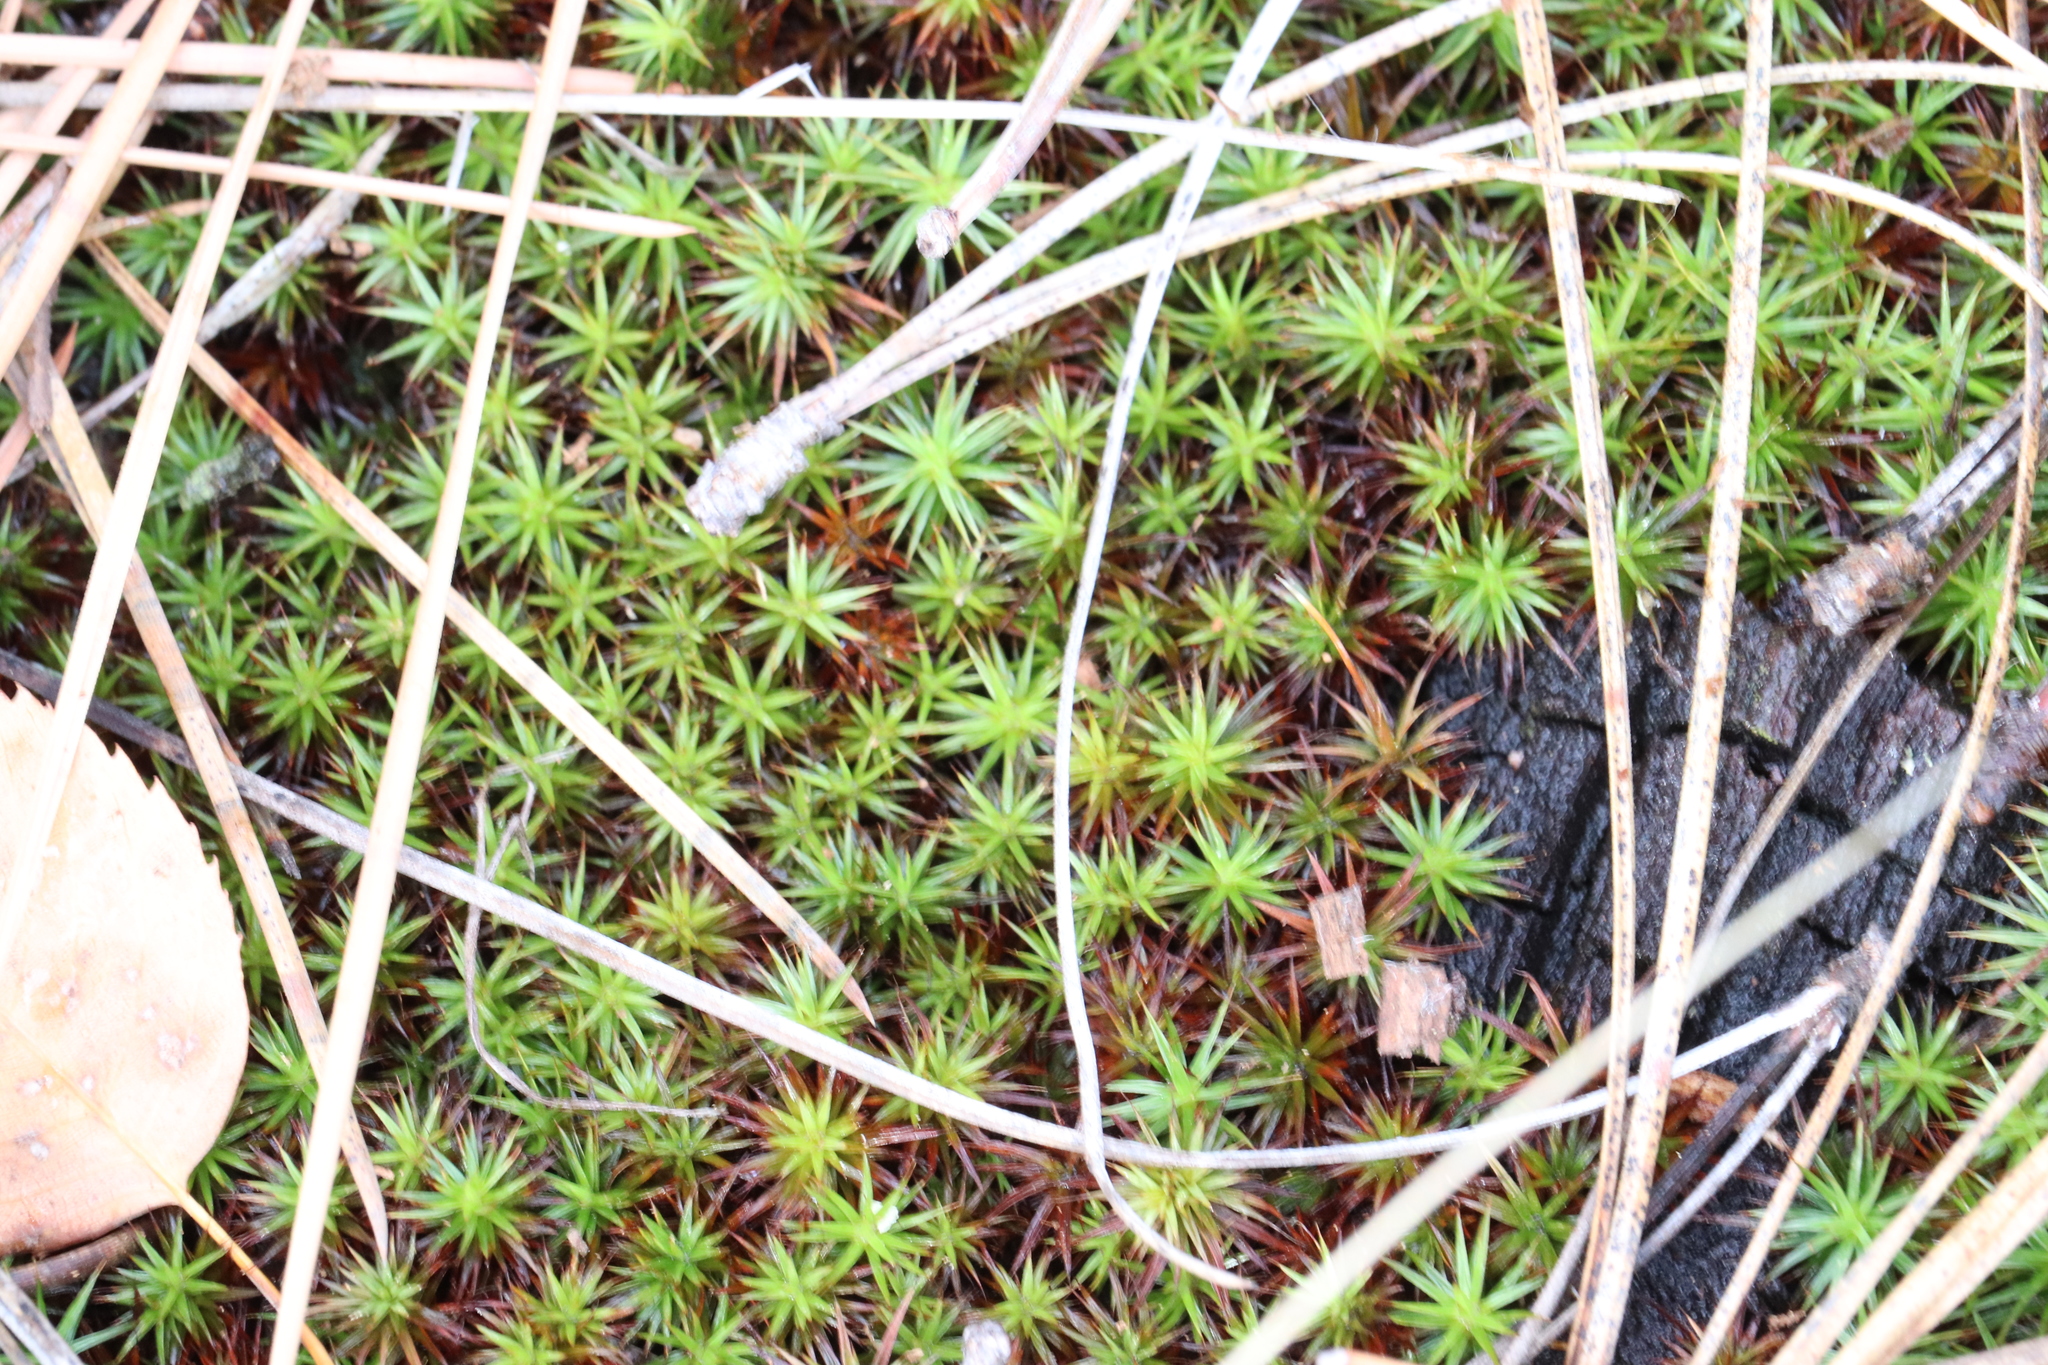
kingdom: Plantae
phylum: Bryophyta
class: Polytrichopsida
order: Polytrichales
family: Polytrichaceae
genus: Polytrichum
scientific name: Polytrichum juniperinum
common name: Juniper haircap moss
